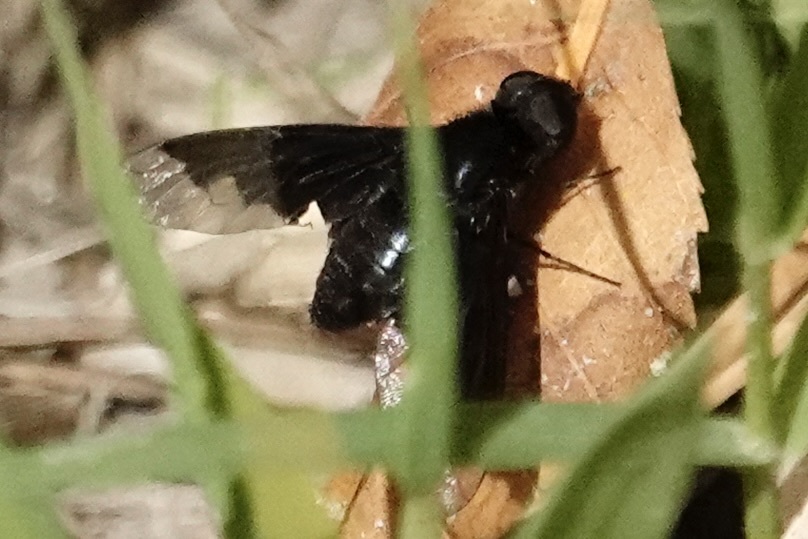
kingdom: Animalia
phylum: Arthropoda
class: Insecta
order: Diptera
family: Bombyliidae
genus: Anthrax
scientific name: Anthrax analis
